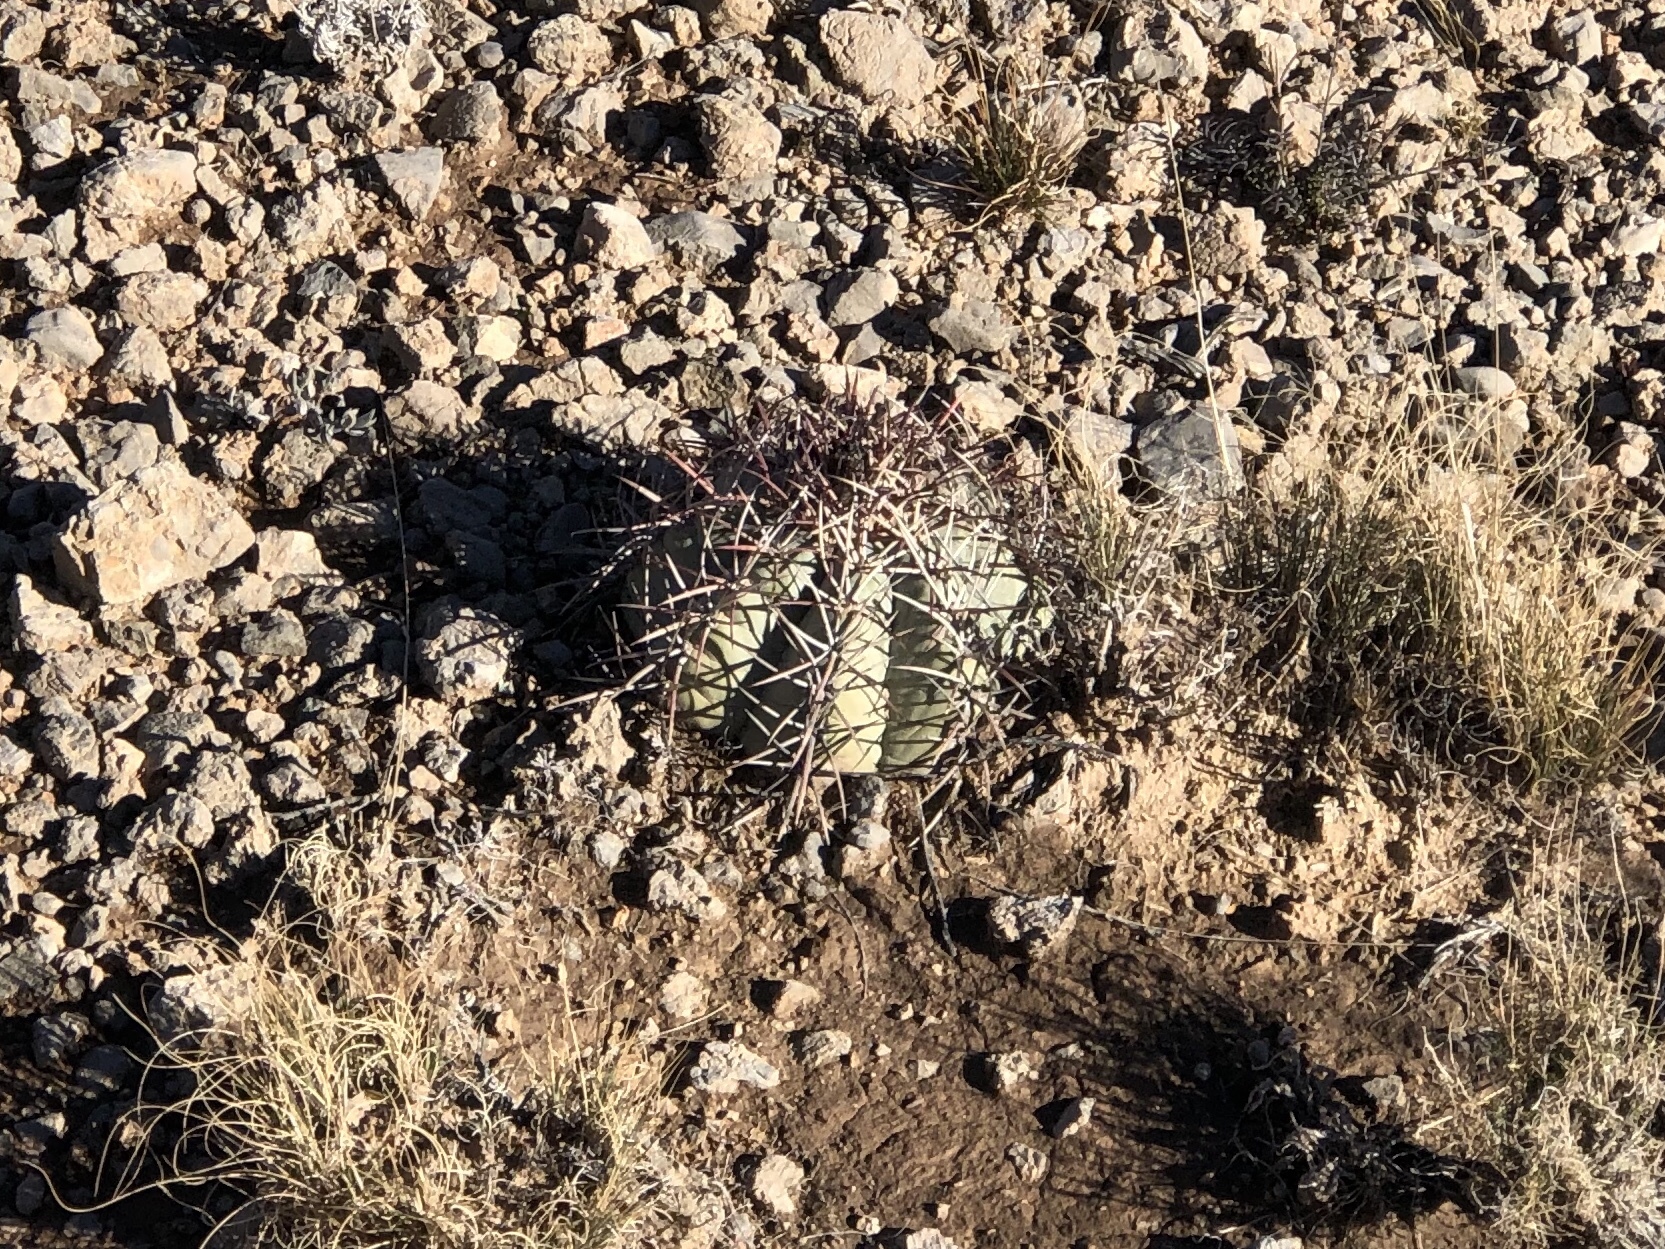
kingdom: Plantae
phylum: Tracheophyta
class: Magnoliopsida
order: Caryophyllales
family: Cactaceae
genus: Echinocactus
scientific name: Echinocactus horizonthalonius
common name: Devilshead
